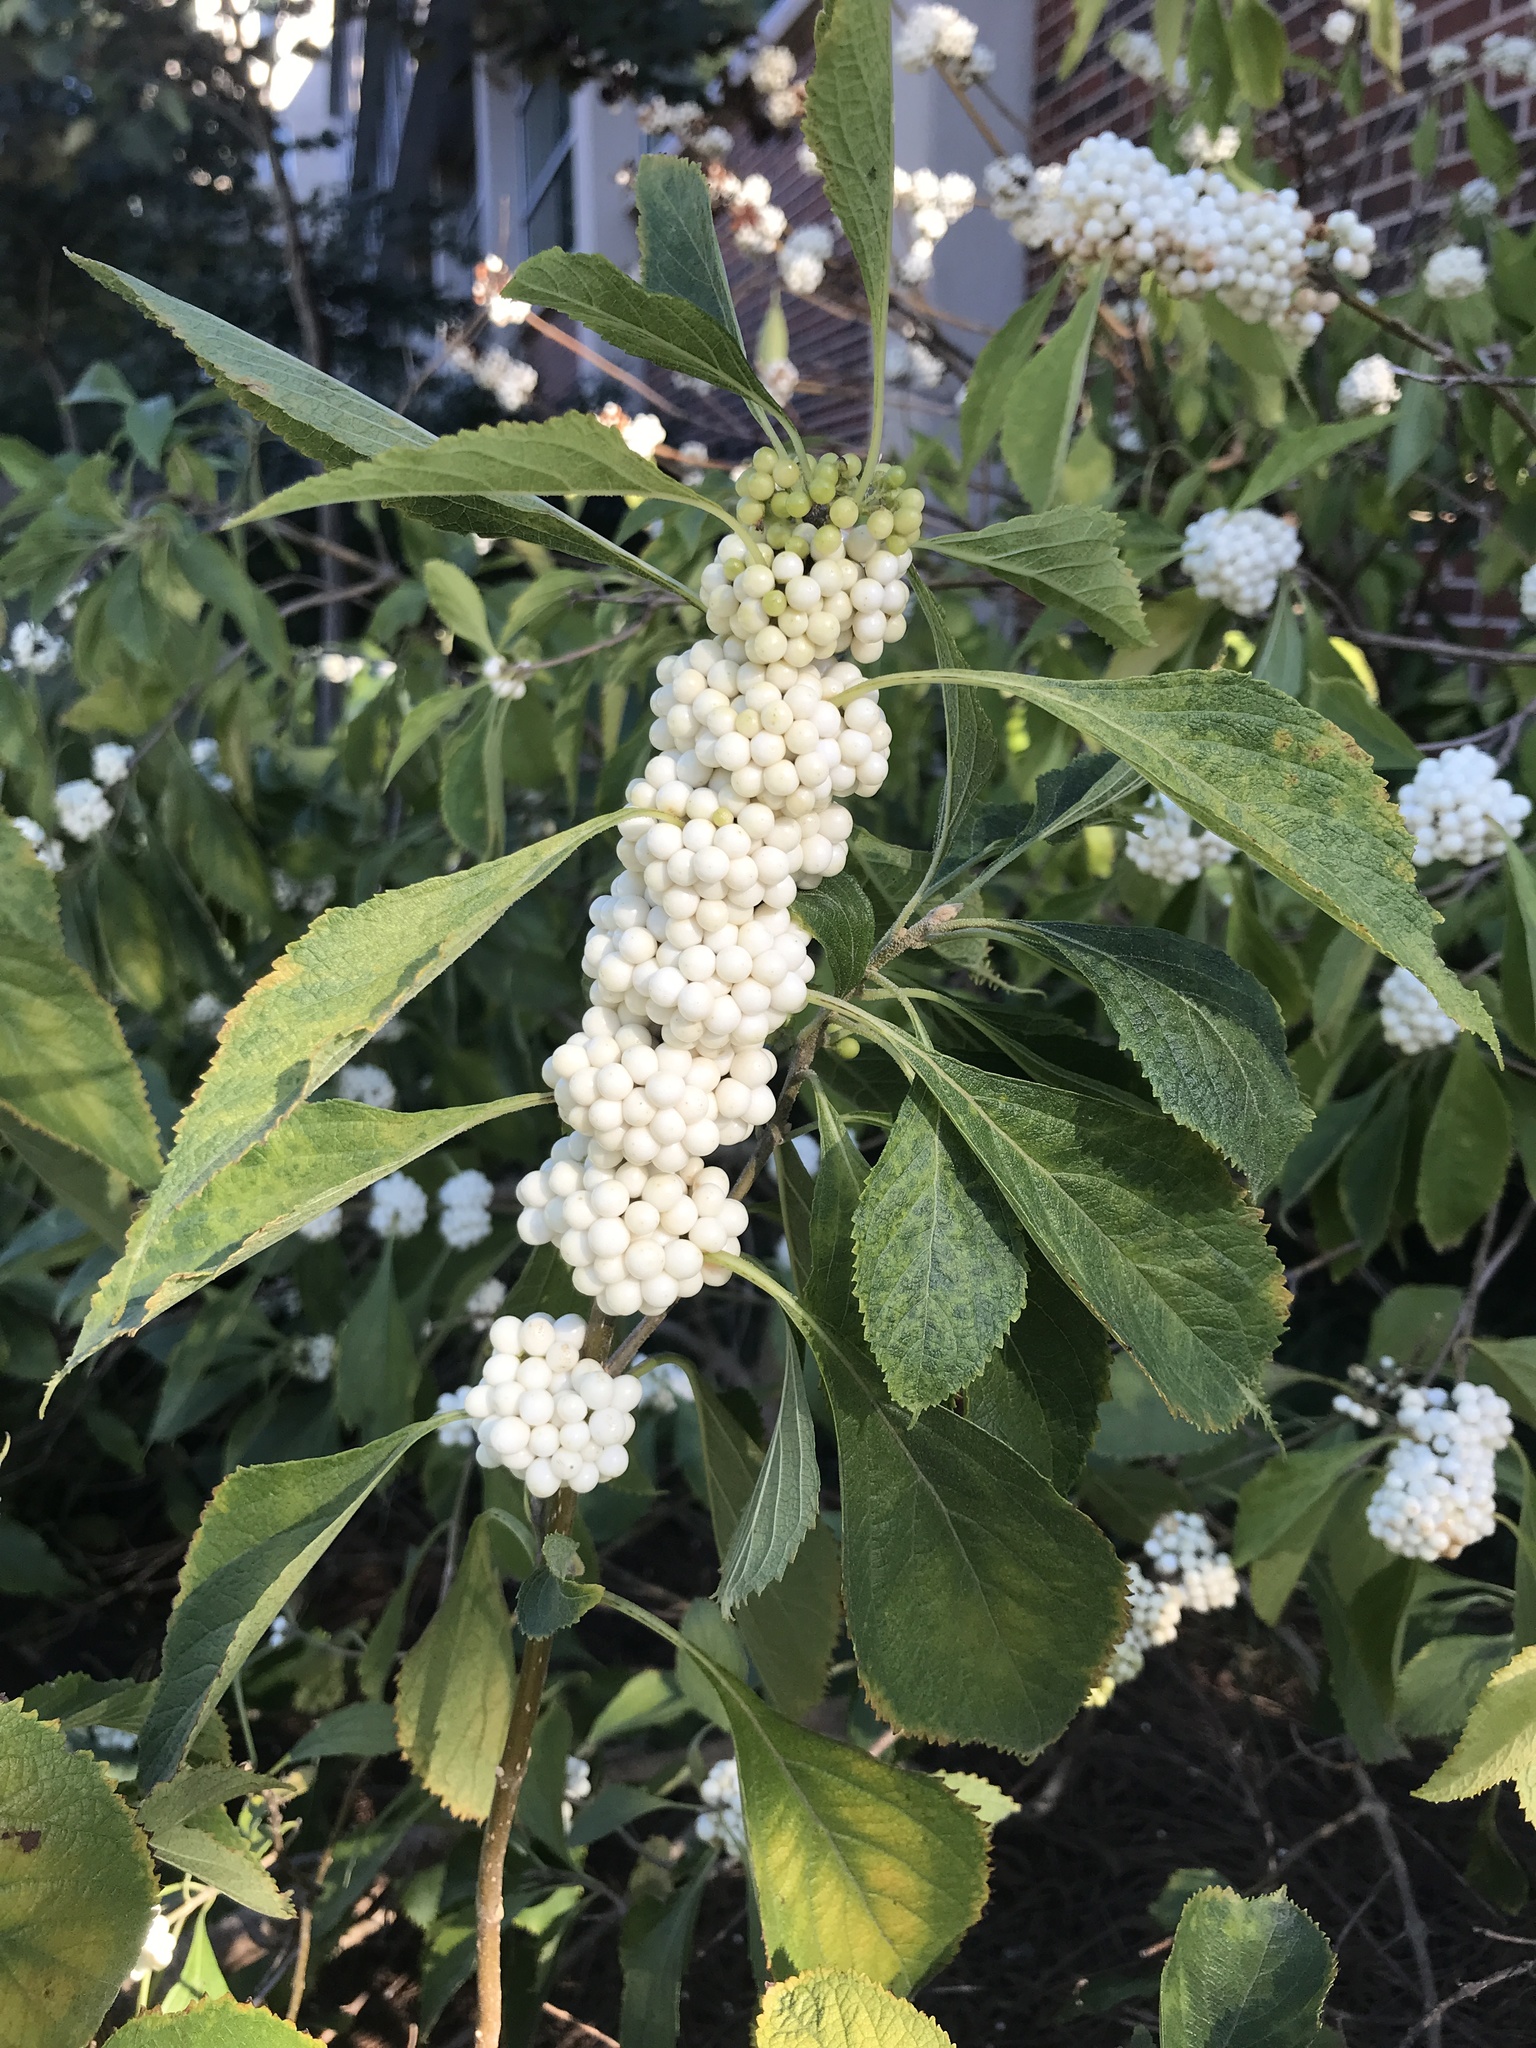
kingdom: Plantae
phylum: Tracheophyta
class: Magnoliopsida
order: Lamiales
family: Lamiaceae
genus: Callicarpa
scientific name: Callicarpa americana
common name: American beautyberry
